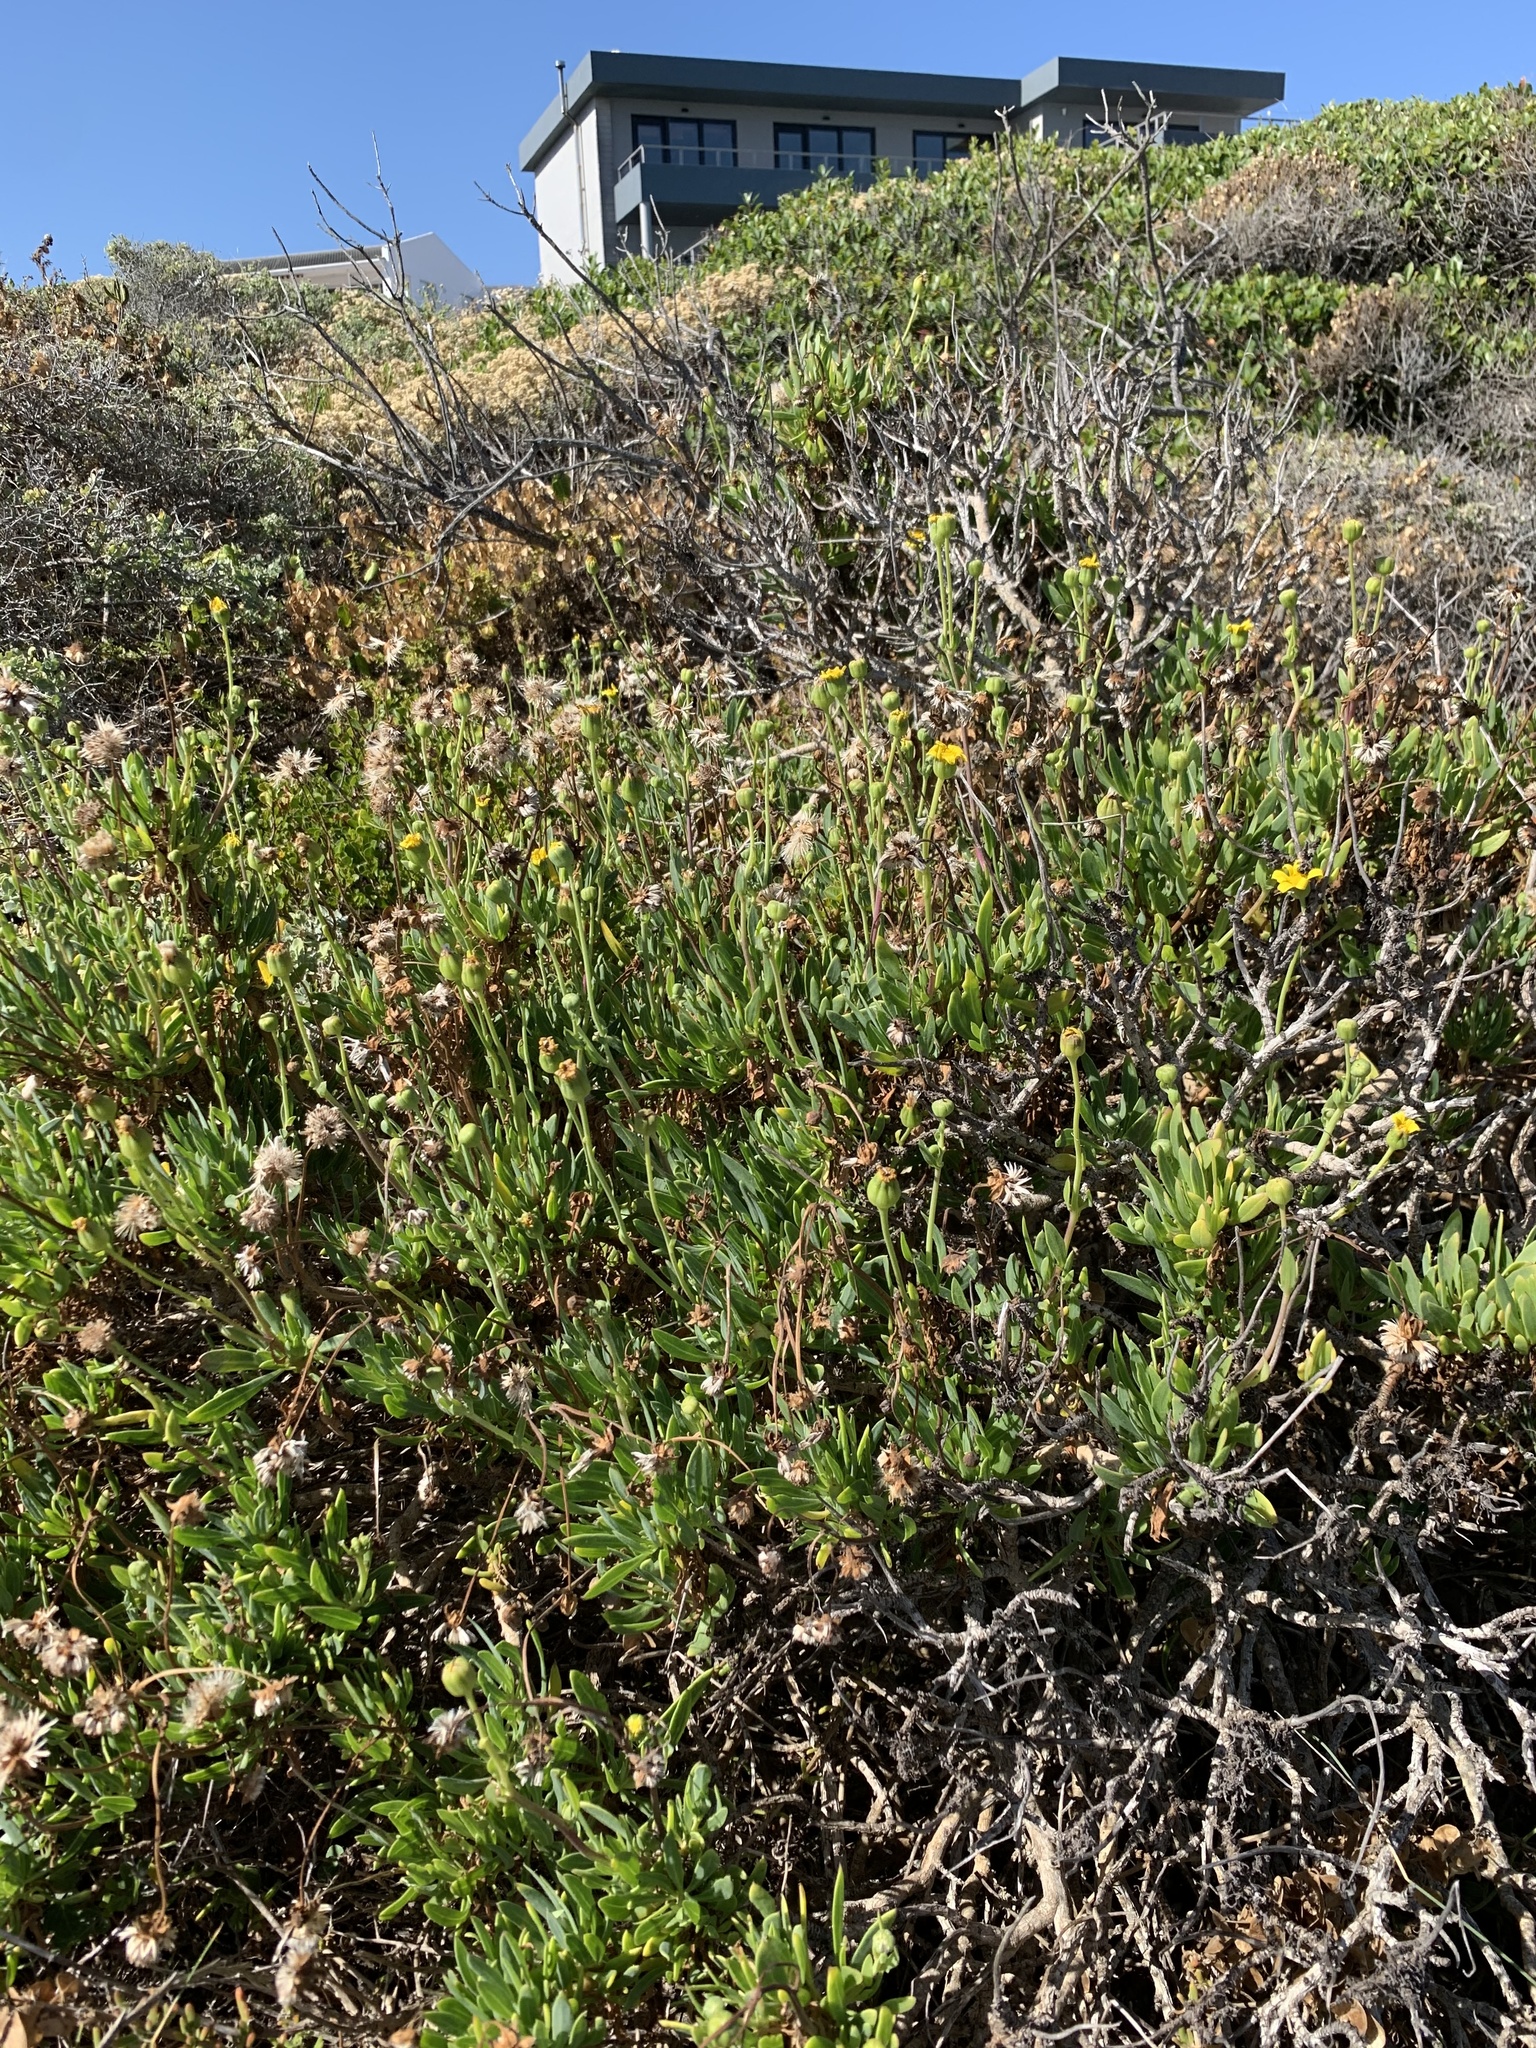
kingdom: Plantae
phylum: Tracheophyta
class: Magnoliopsida
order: Asterales
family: Asteraceae
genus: Othonna
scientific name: Othonna coronopifolia
